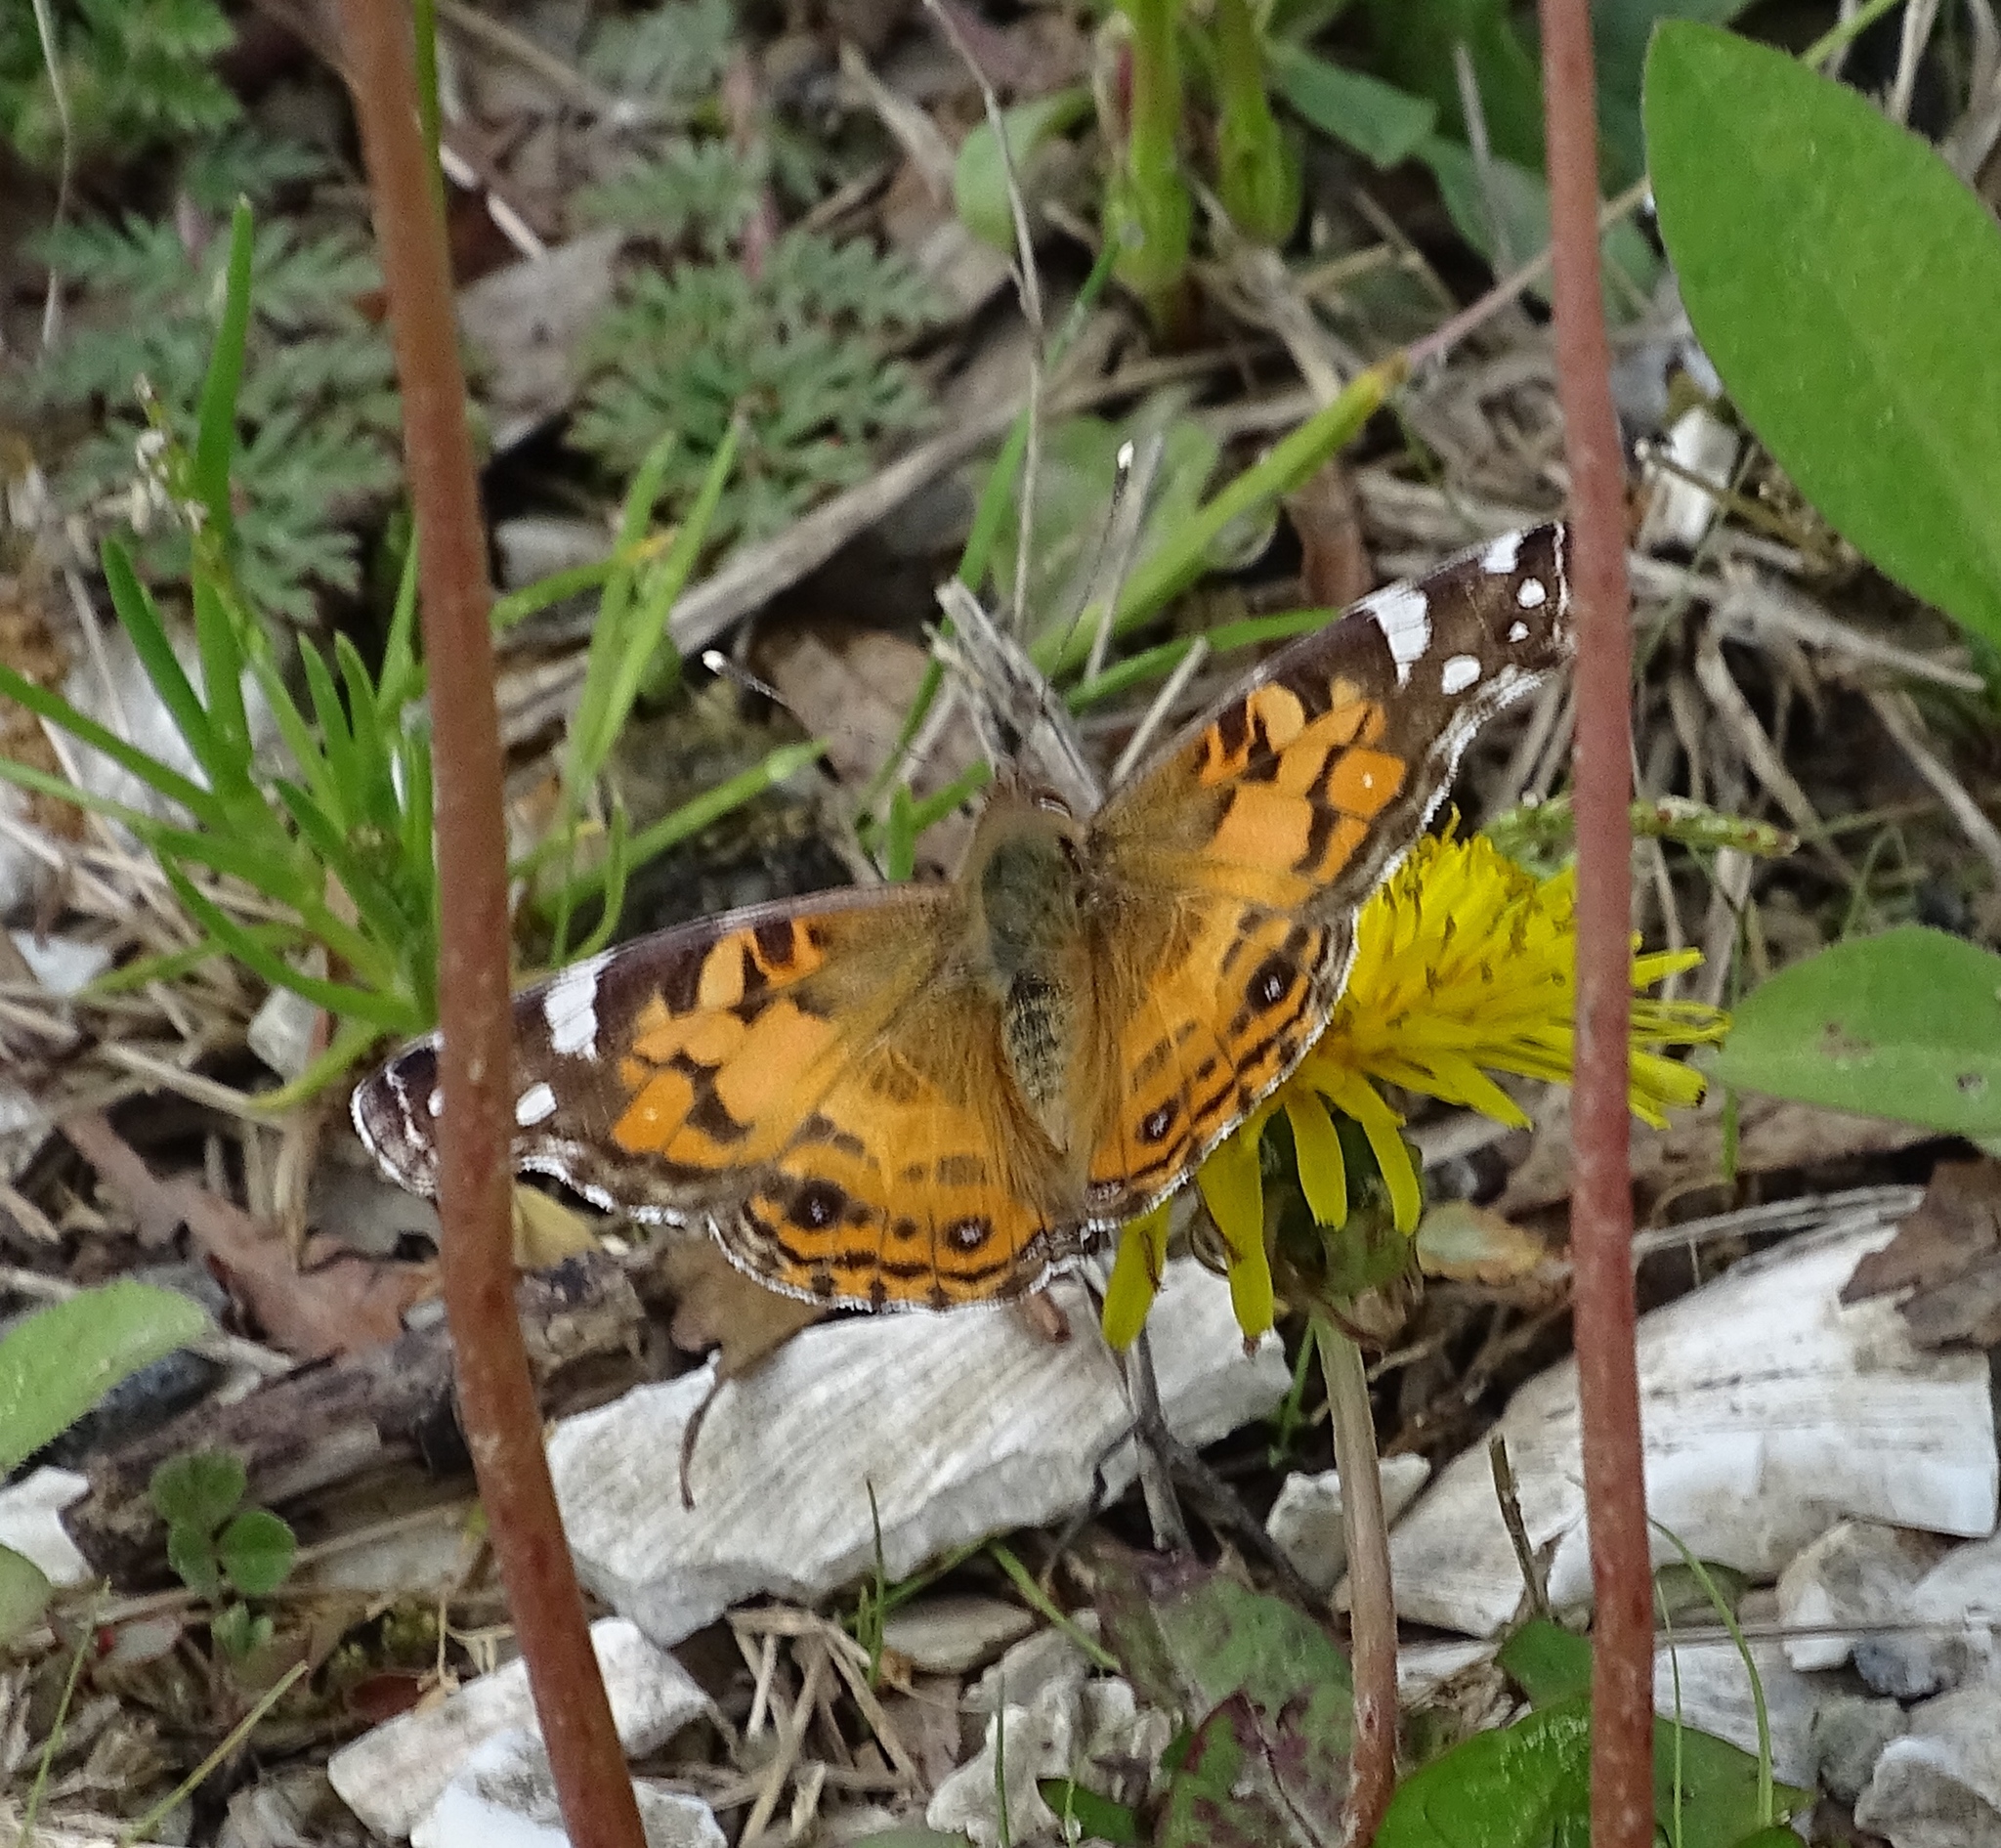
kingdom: Animalia
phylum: Arthropoda
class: Insecta
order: Lepidoptera
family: Nymphalidae
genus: Vanessa
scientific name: Vanessa virginiensis
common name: American lady
